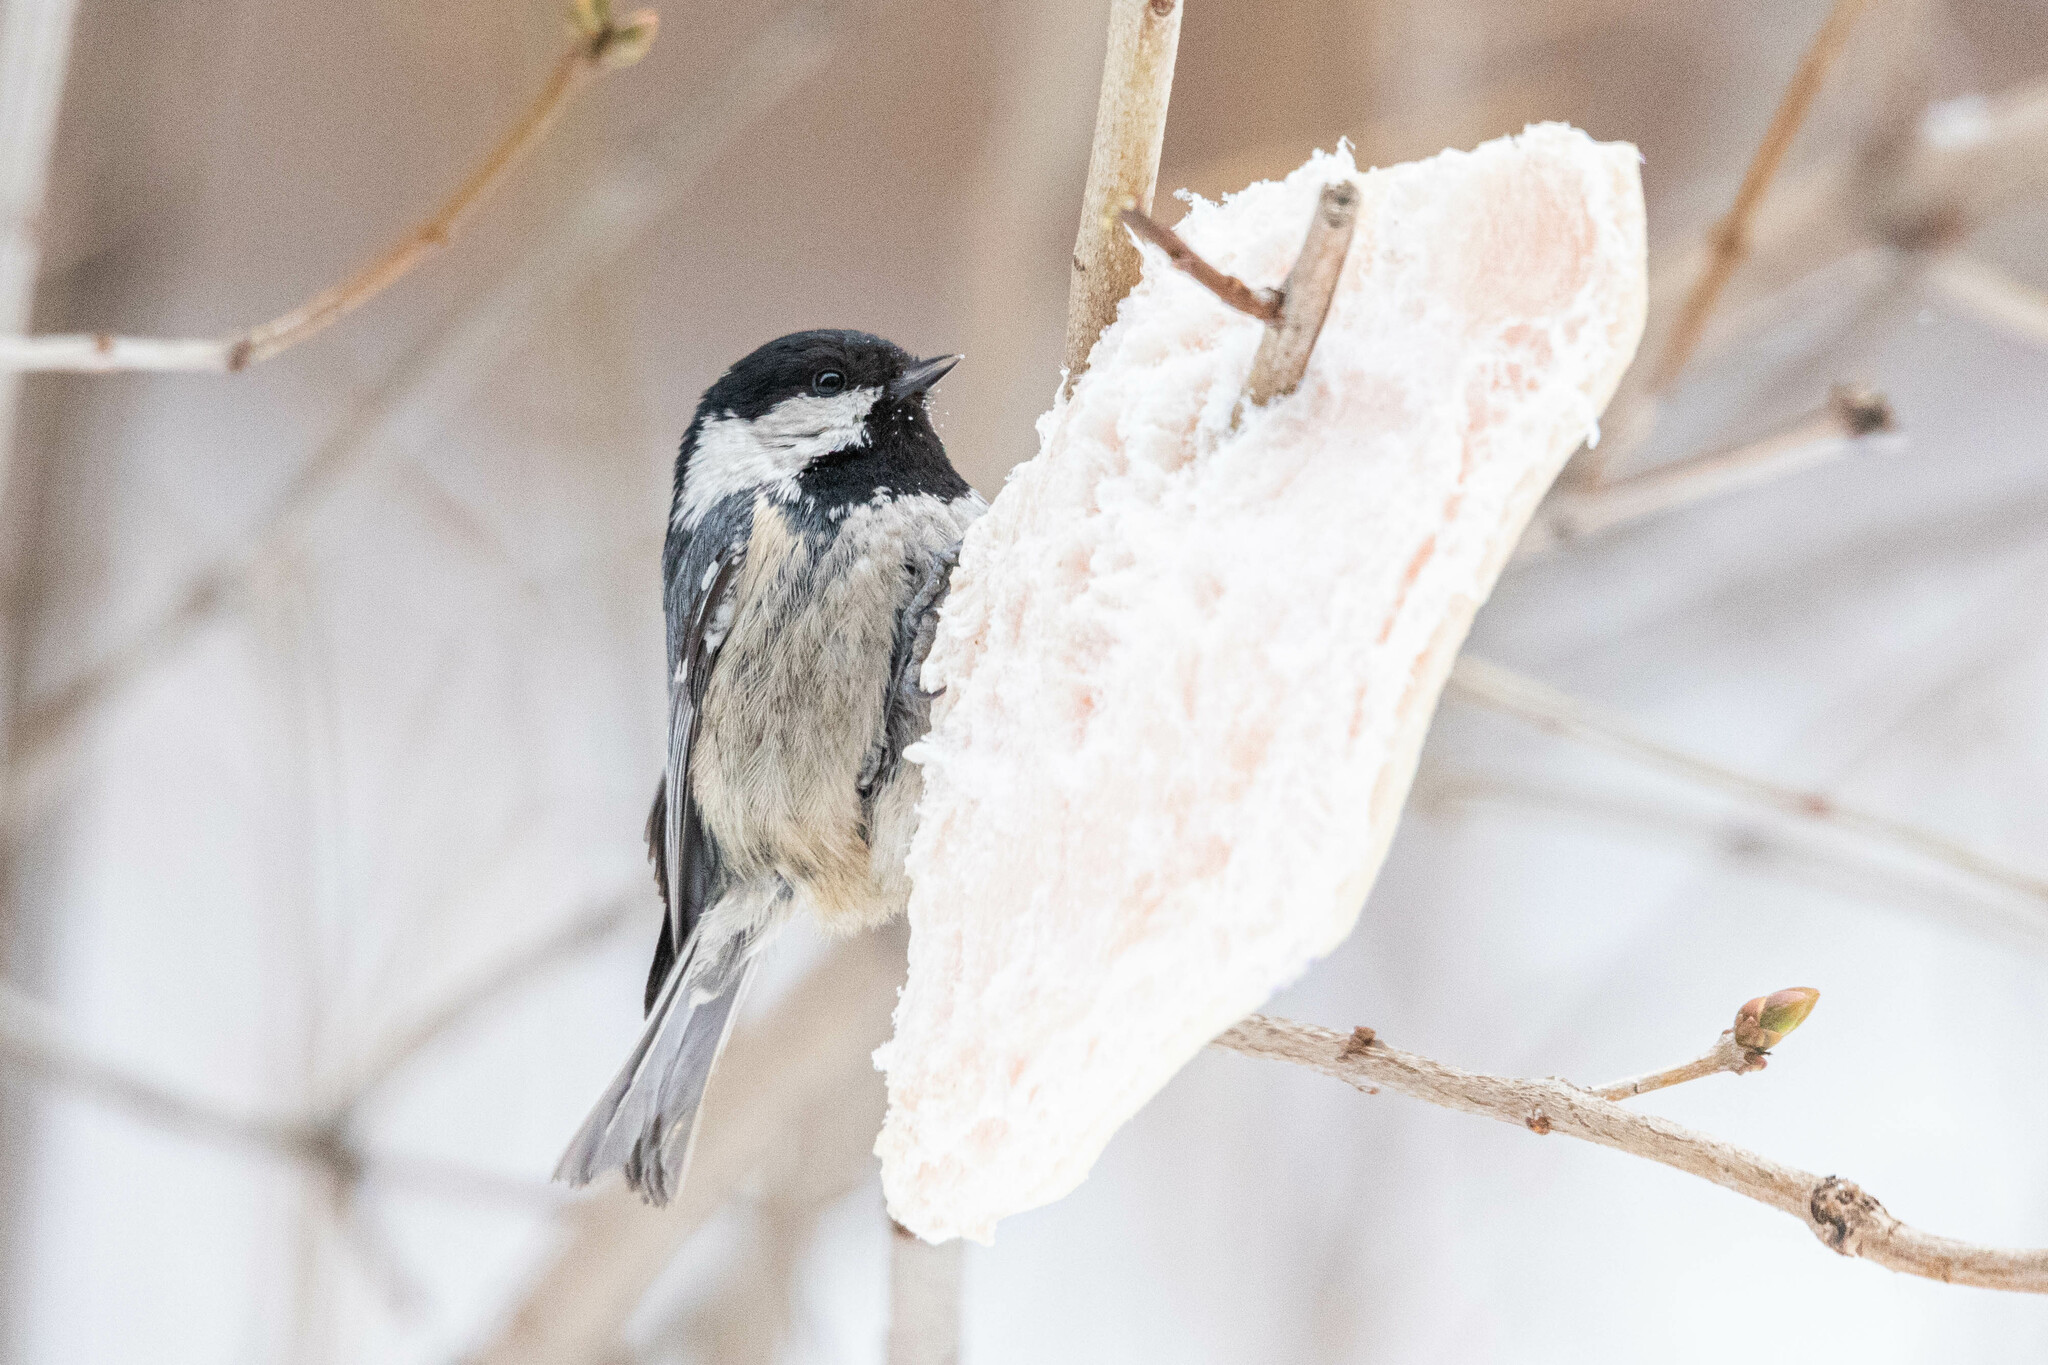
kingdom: Animalia
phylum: Chordata
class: Aves
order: Passeriformes
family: Paridae
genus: Periparus
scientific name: Periparus ater
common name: Coal tit
